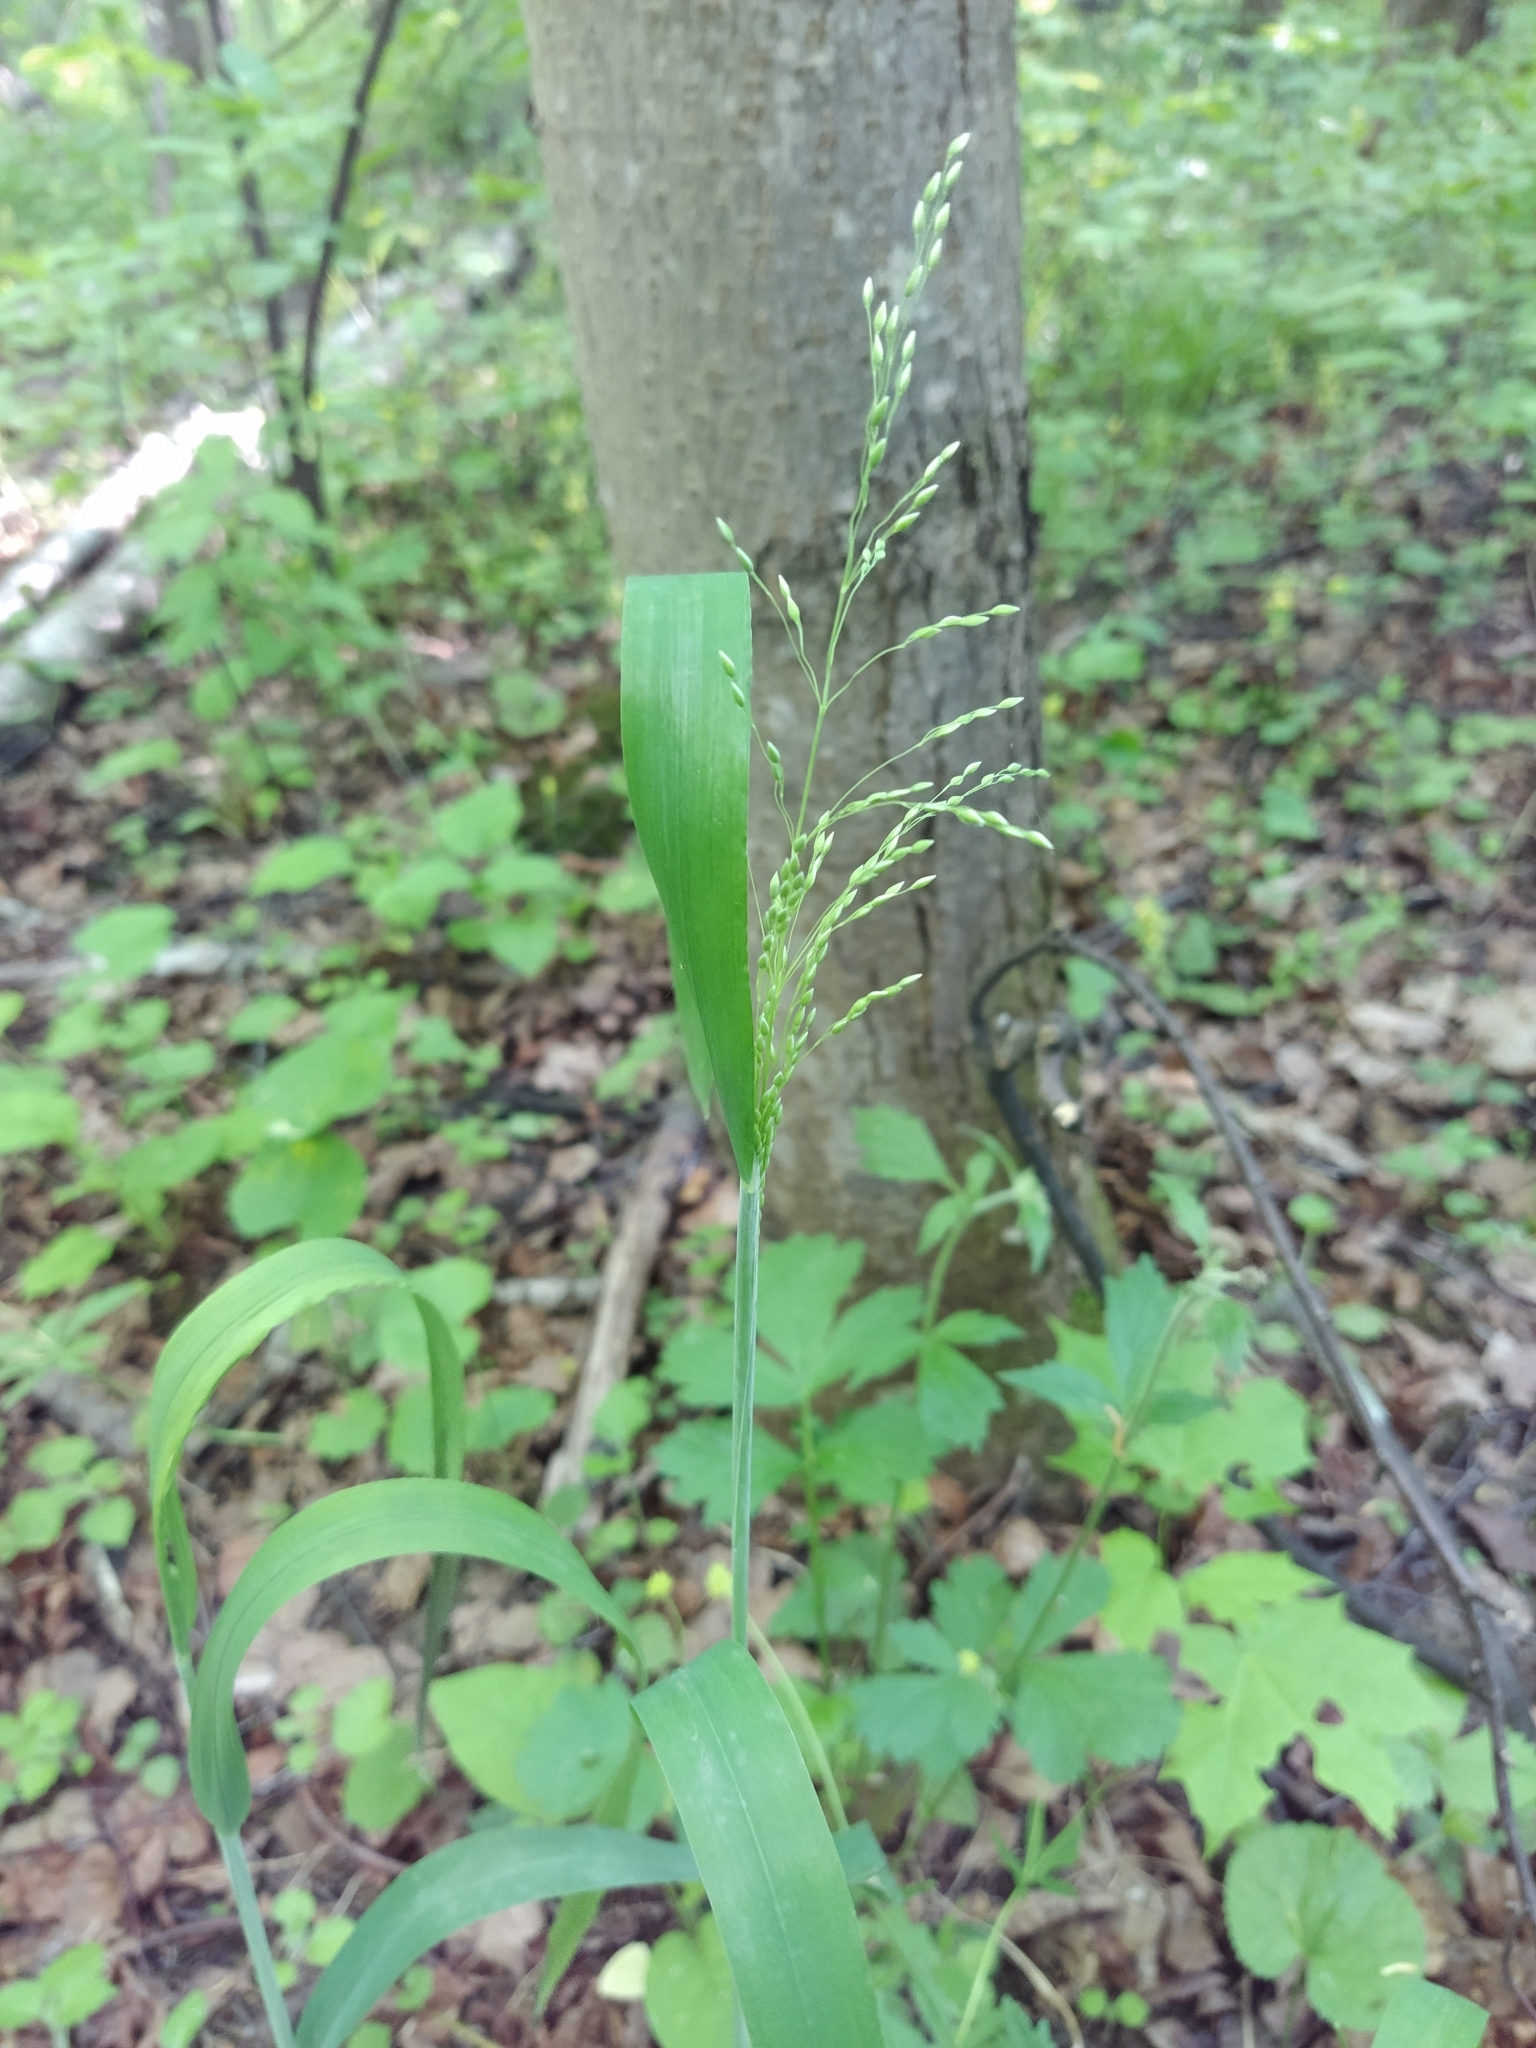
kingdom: Plantae
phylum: Tracheophyta
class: Liliopsida
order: Poales
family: Poaceae
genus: Milium
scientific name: Milium effusum
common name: Wood millet
